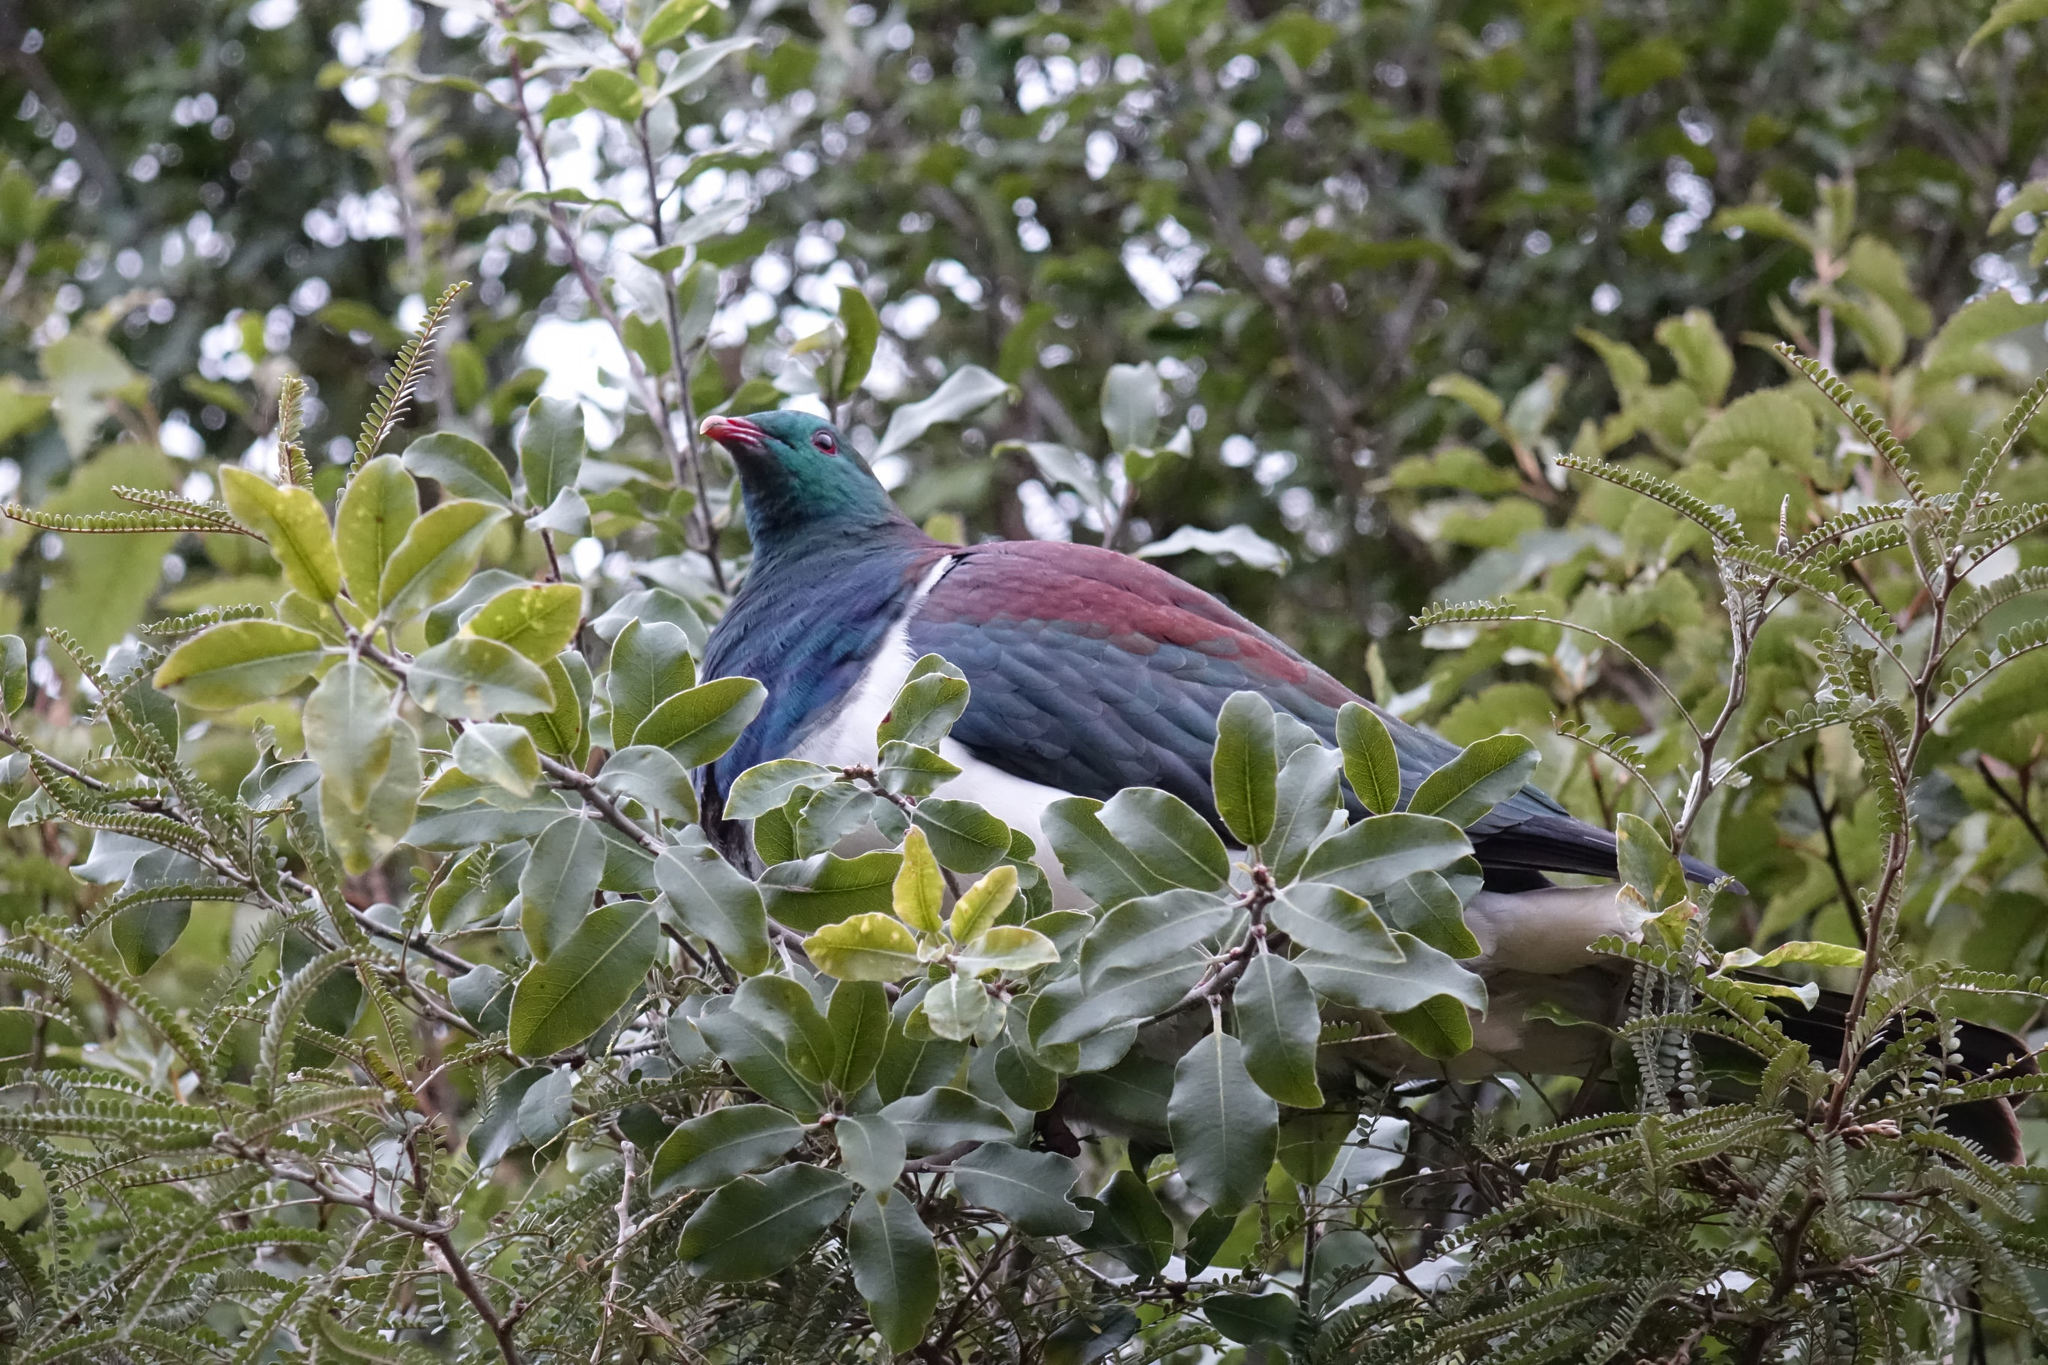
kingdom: Animalia
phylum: Chordata
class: Aves
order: Columbiformes
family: Columbidae
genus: Hemiphaga
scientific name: Hemiphaga novaeseelandiae
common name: New zealand pigeon
